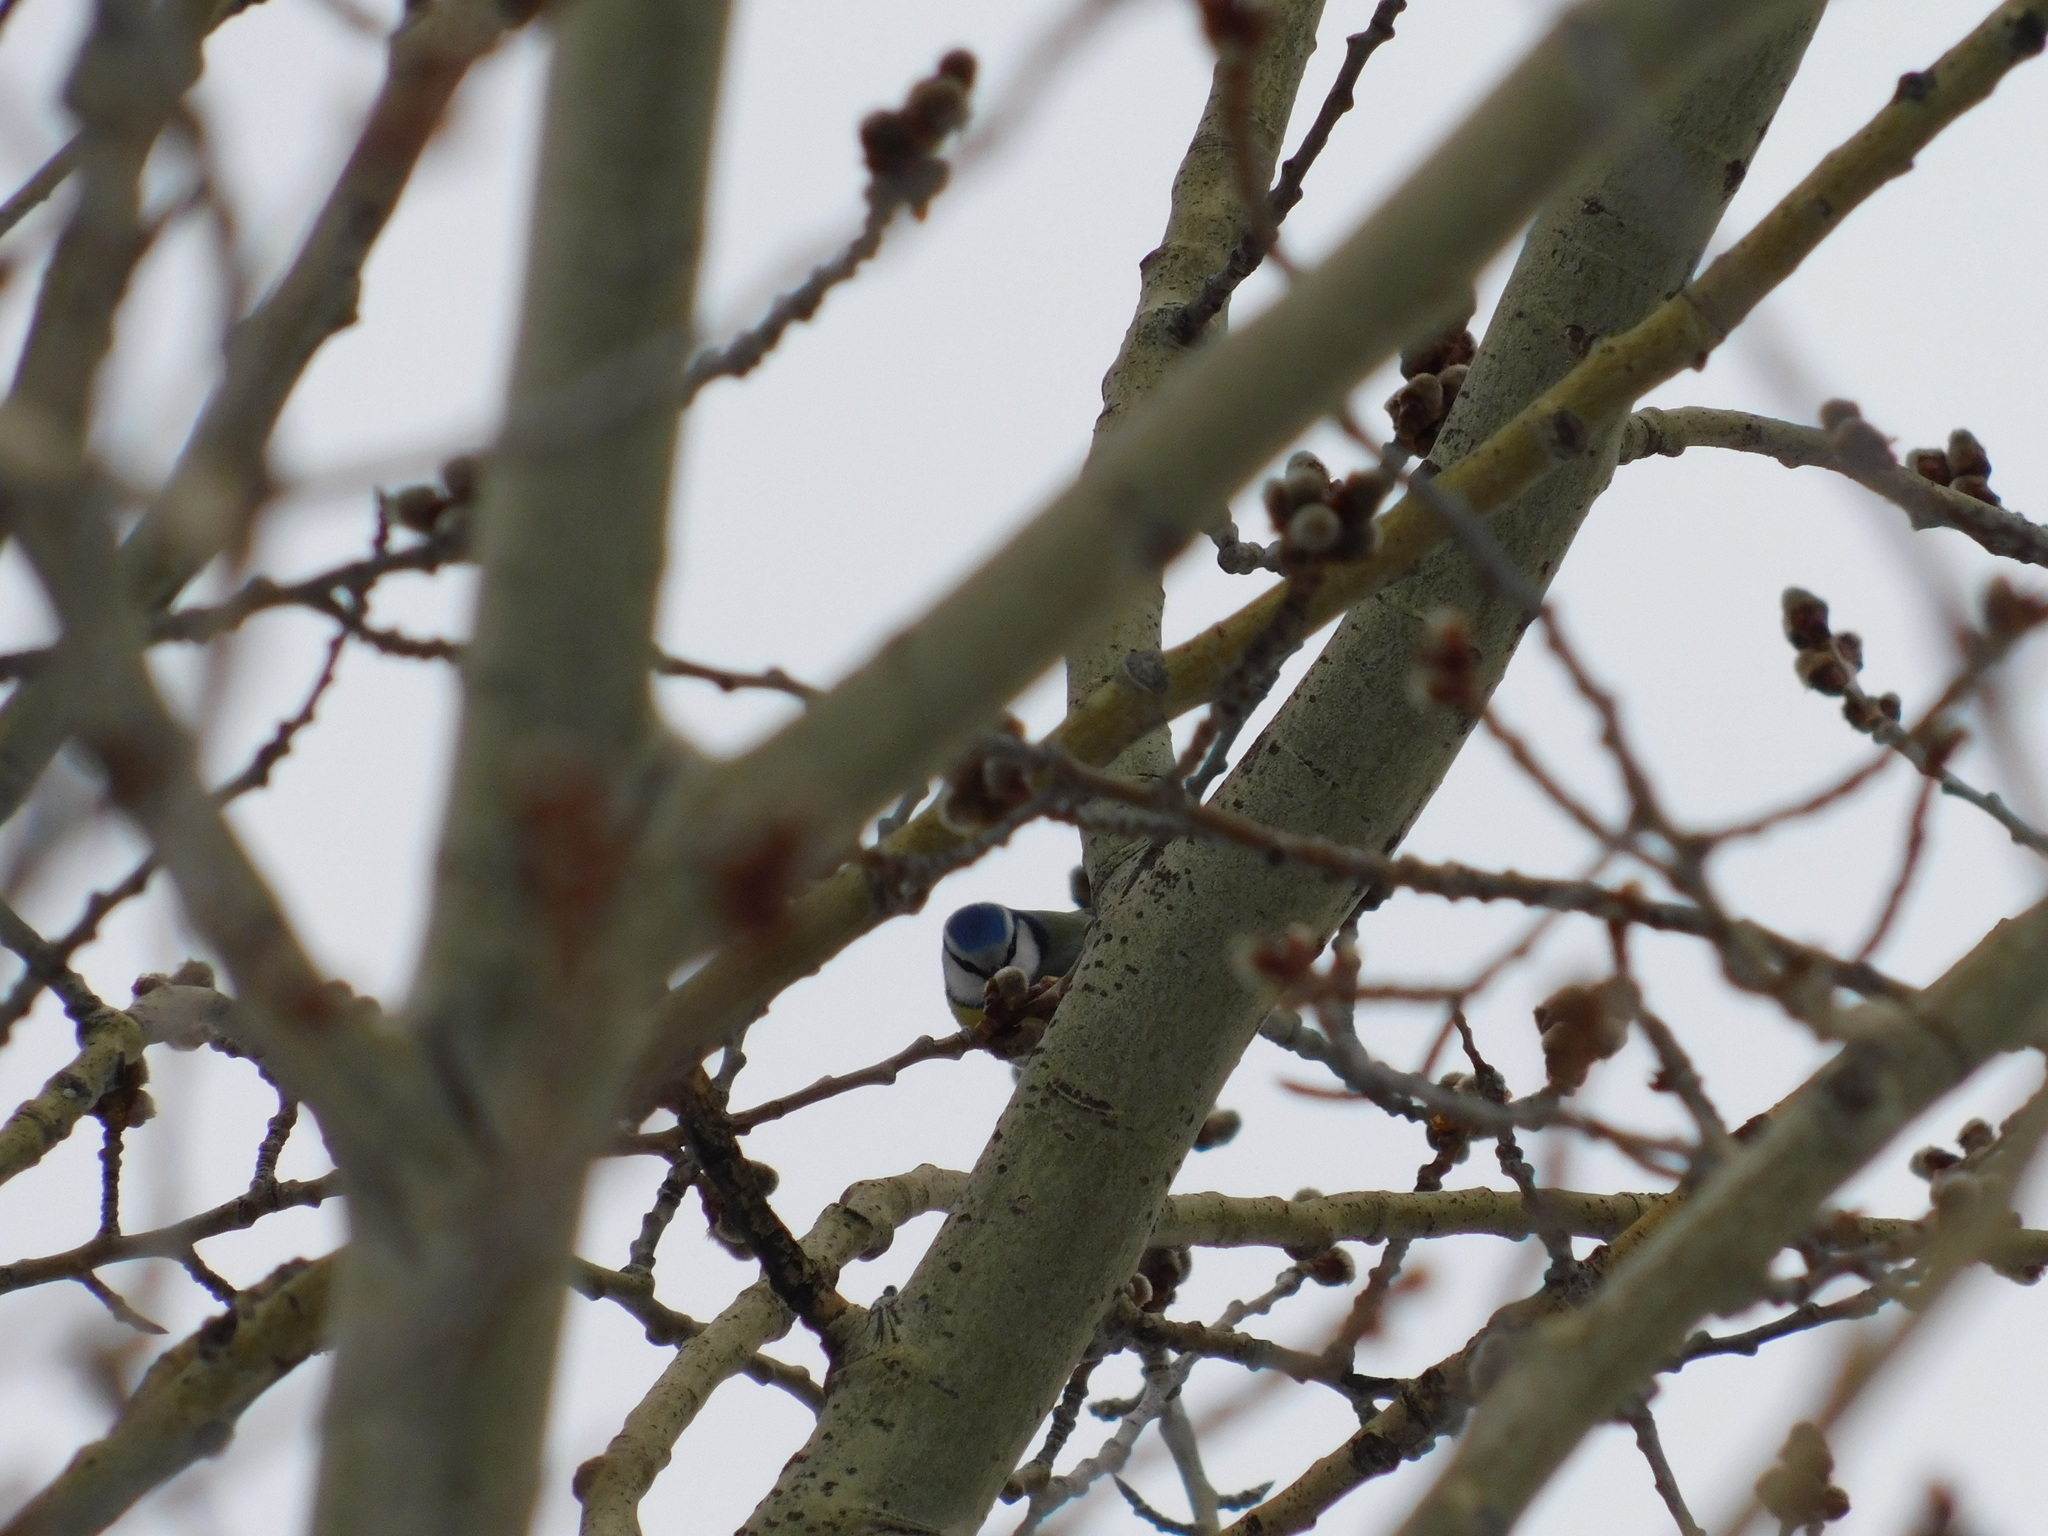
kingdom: Animalia
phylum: Chordata
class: Aves
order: Passeriformes
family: Paridae
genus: Cyanistes
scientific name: Cyanistes caeruleus
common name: Eurasian blue tit
